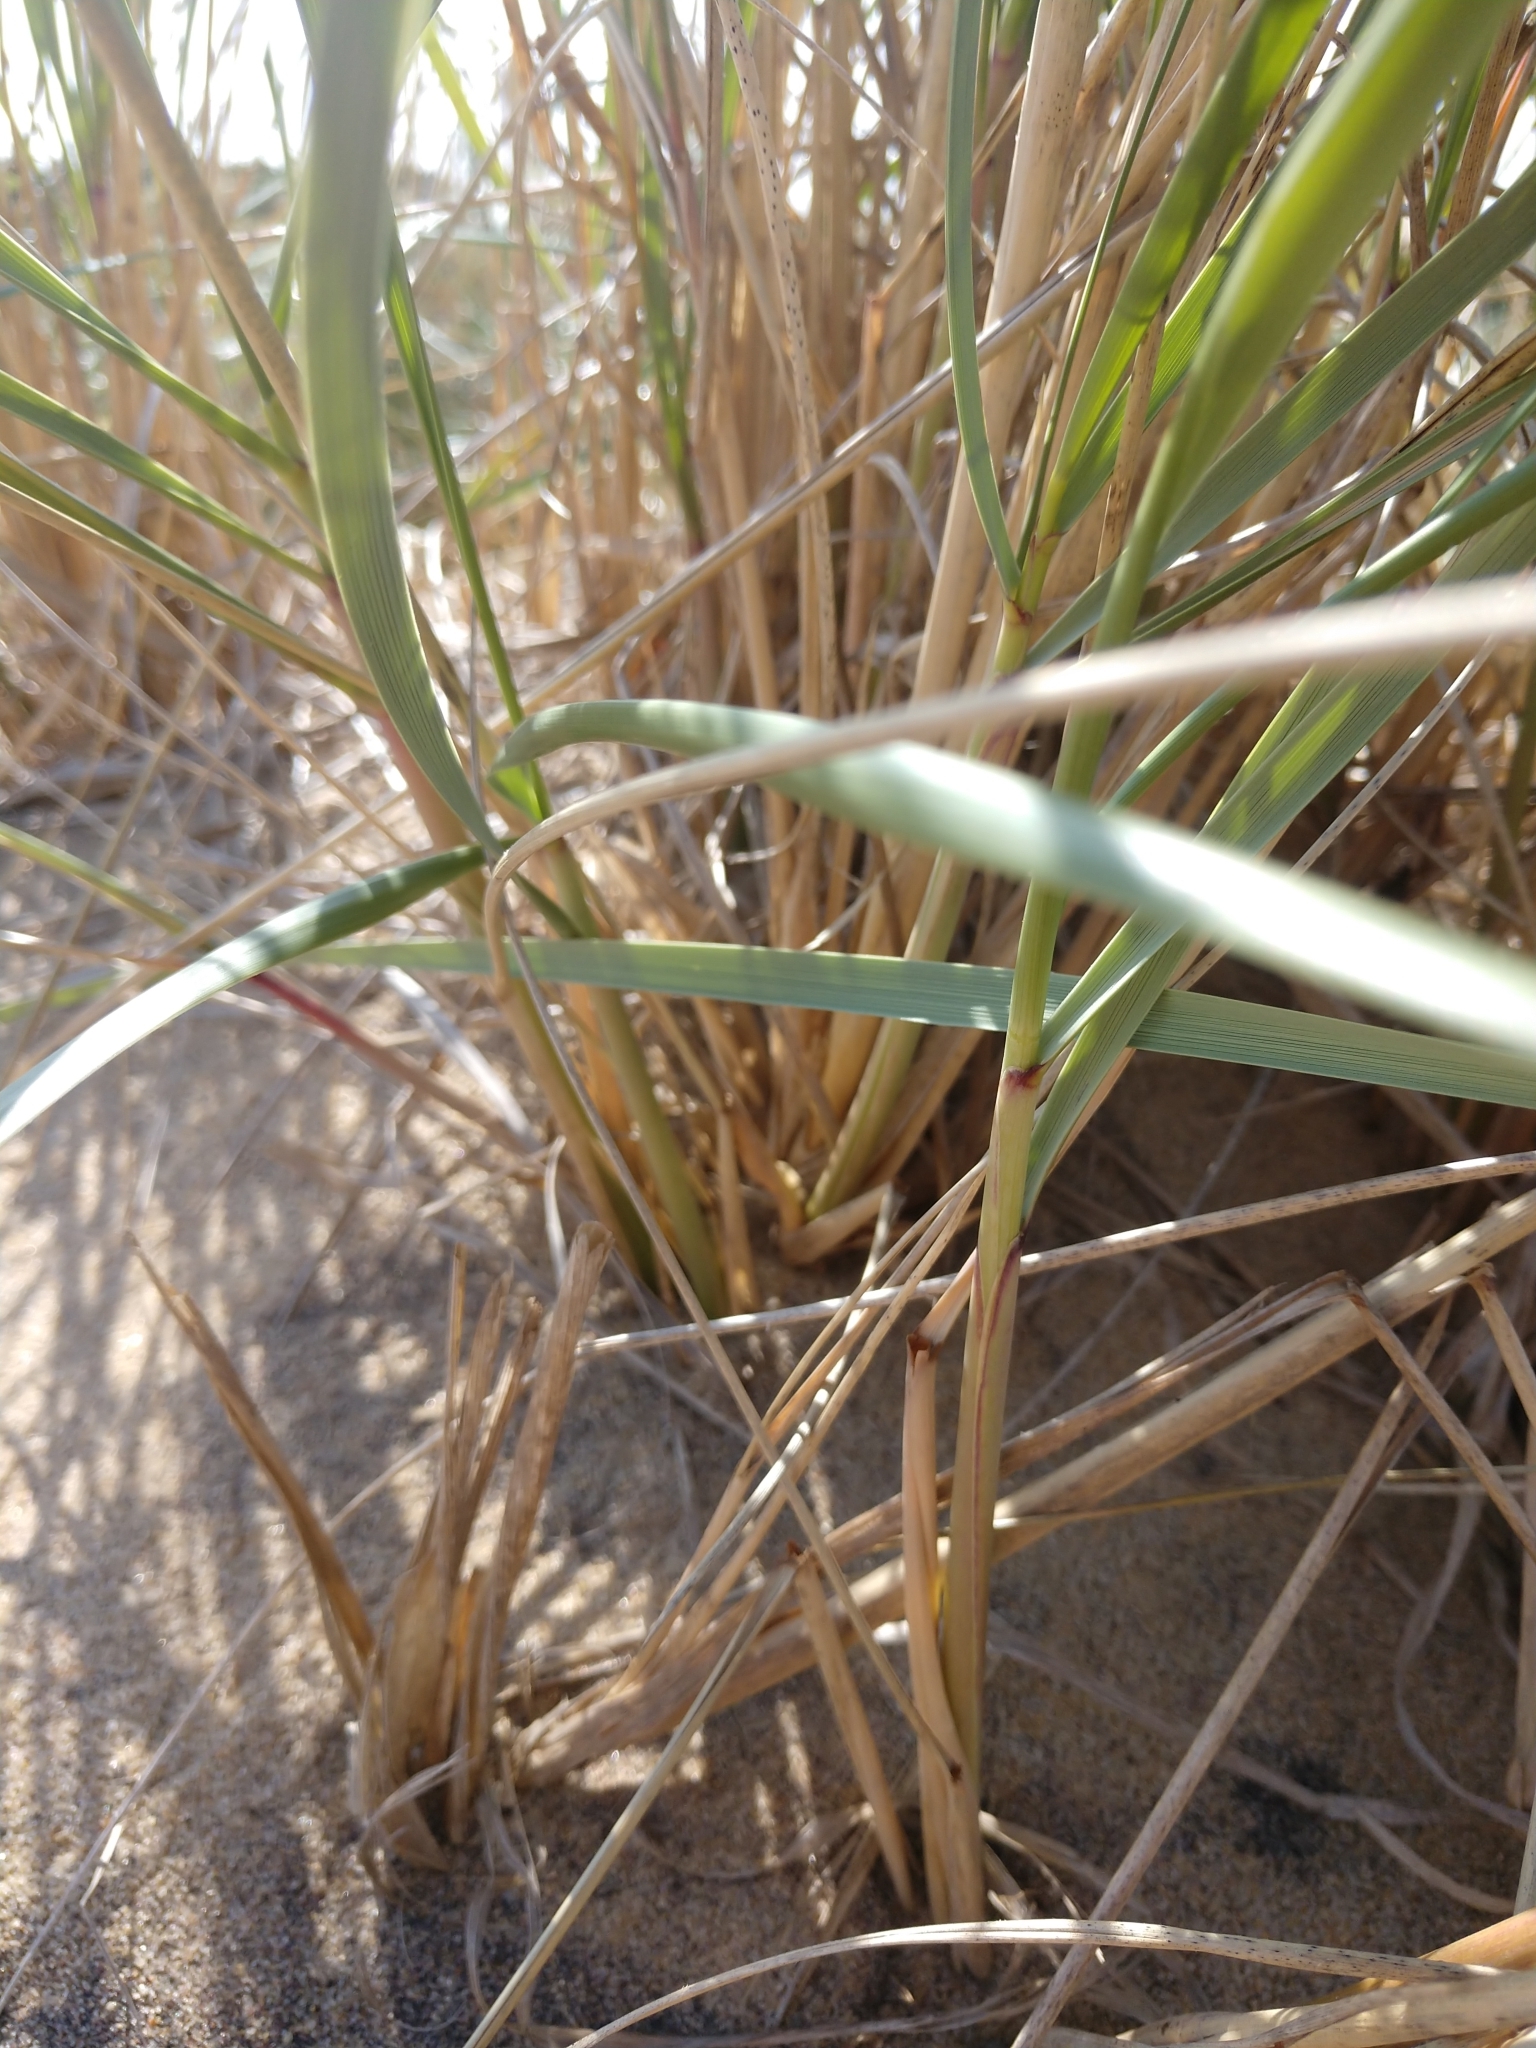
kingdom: Plantae
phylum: Tracheophyta
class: Liliopsida
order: Poales
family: Poaceae
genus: Calamagrostis
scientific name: Calamagrostis breviligulata
